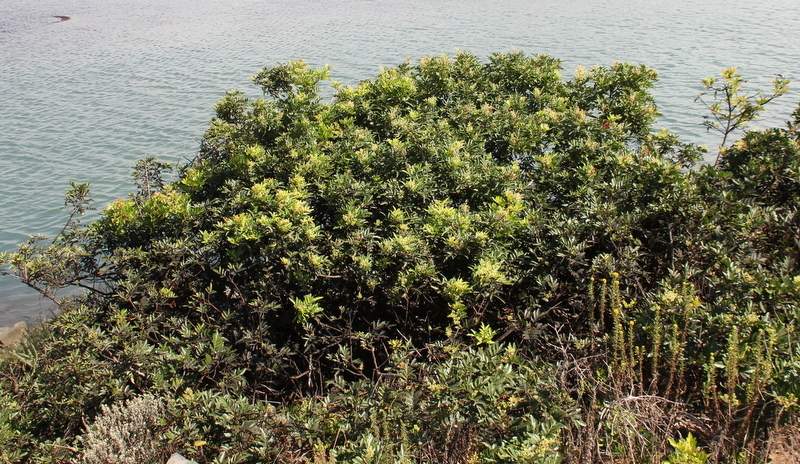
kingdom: Plantae
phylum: Tracheophyta
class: Magnoliopsida
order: Sapindales
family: Anacardiaceae
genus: Schinus
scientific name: Schinus terebinthifolia
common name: Brazilian peppertree
